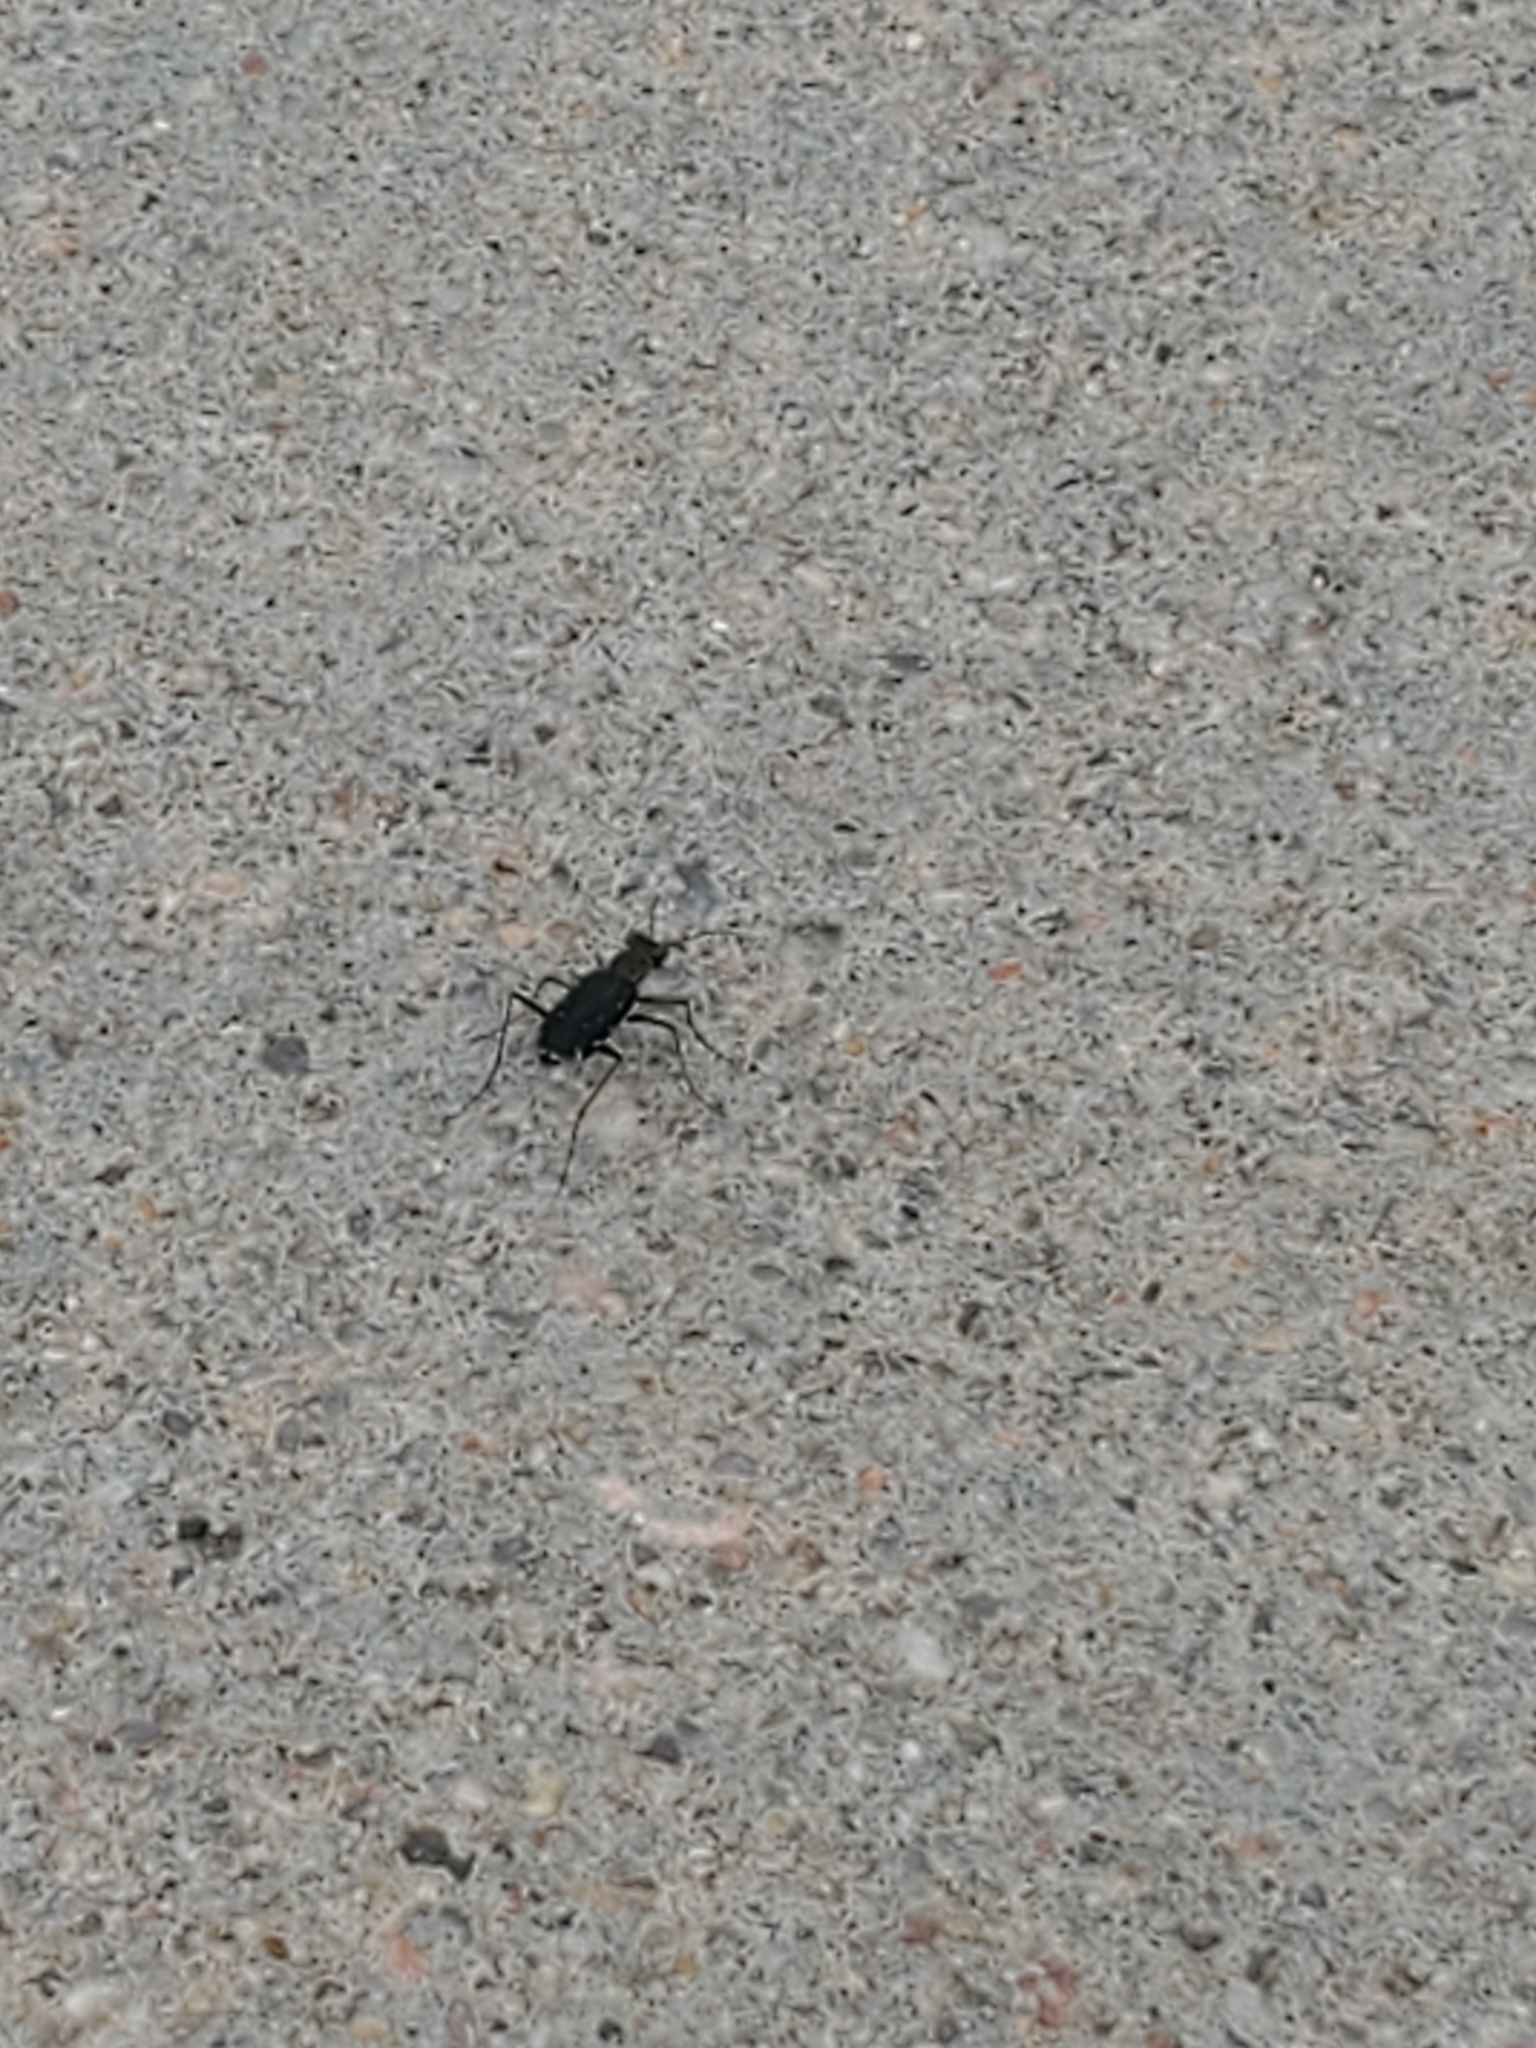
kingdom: Animalia
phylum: Arthropoda
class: Insecta
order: Coleoptera
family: Carabidae
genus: Cicindela
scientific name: Cicindela punctulata
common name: Punctured tiger beetle
